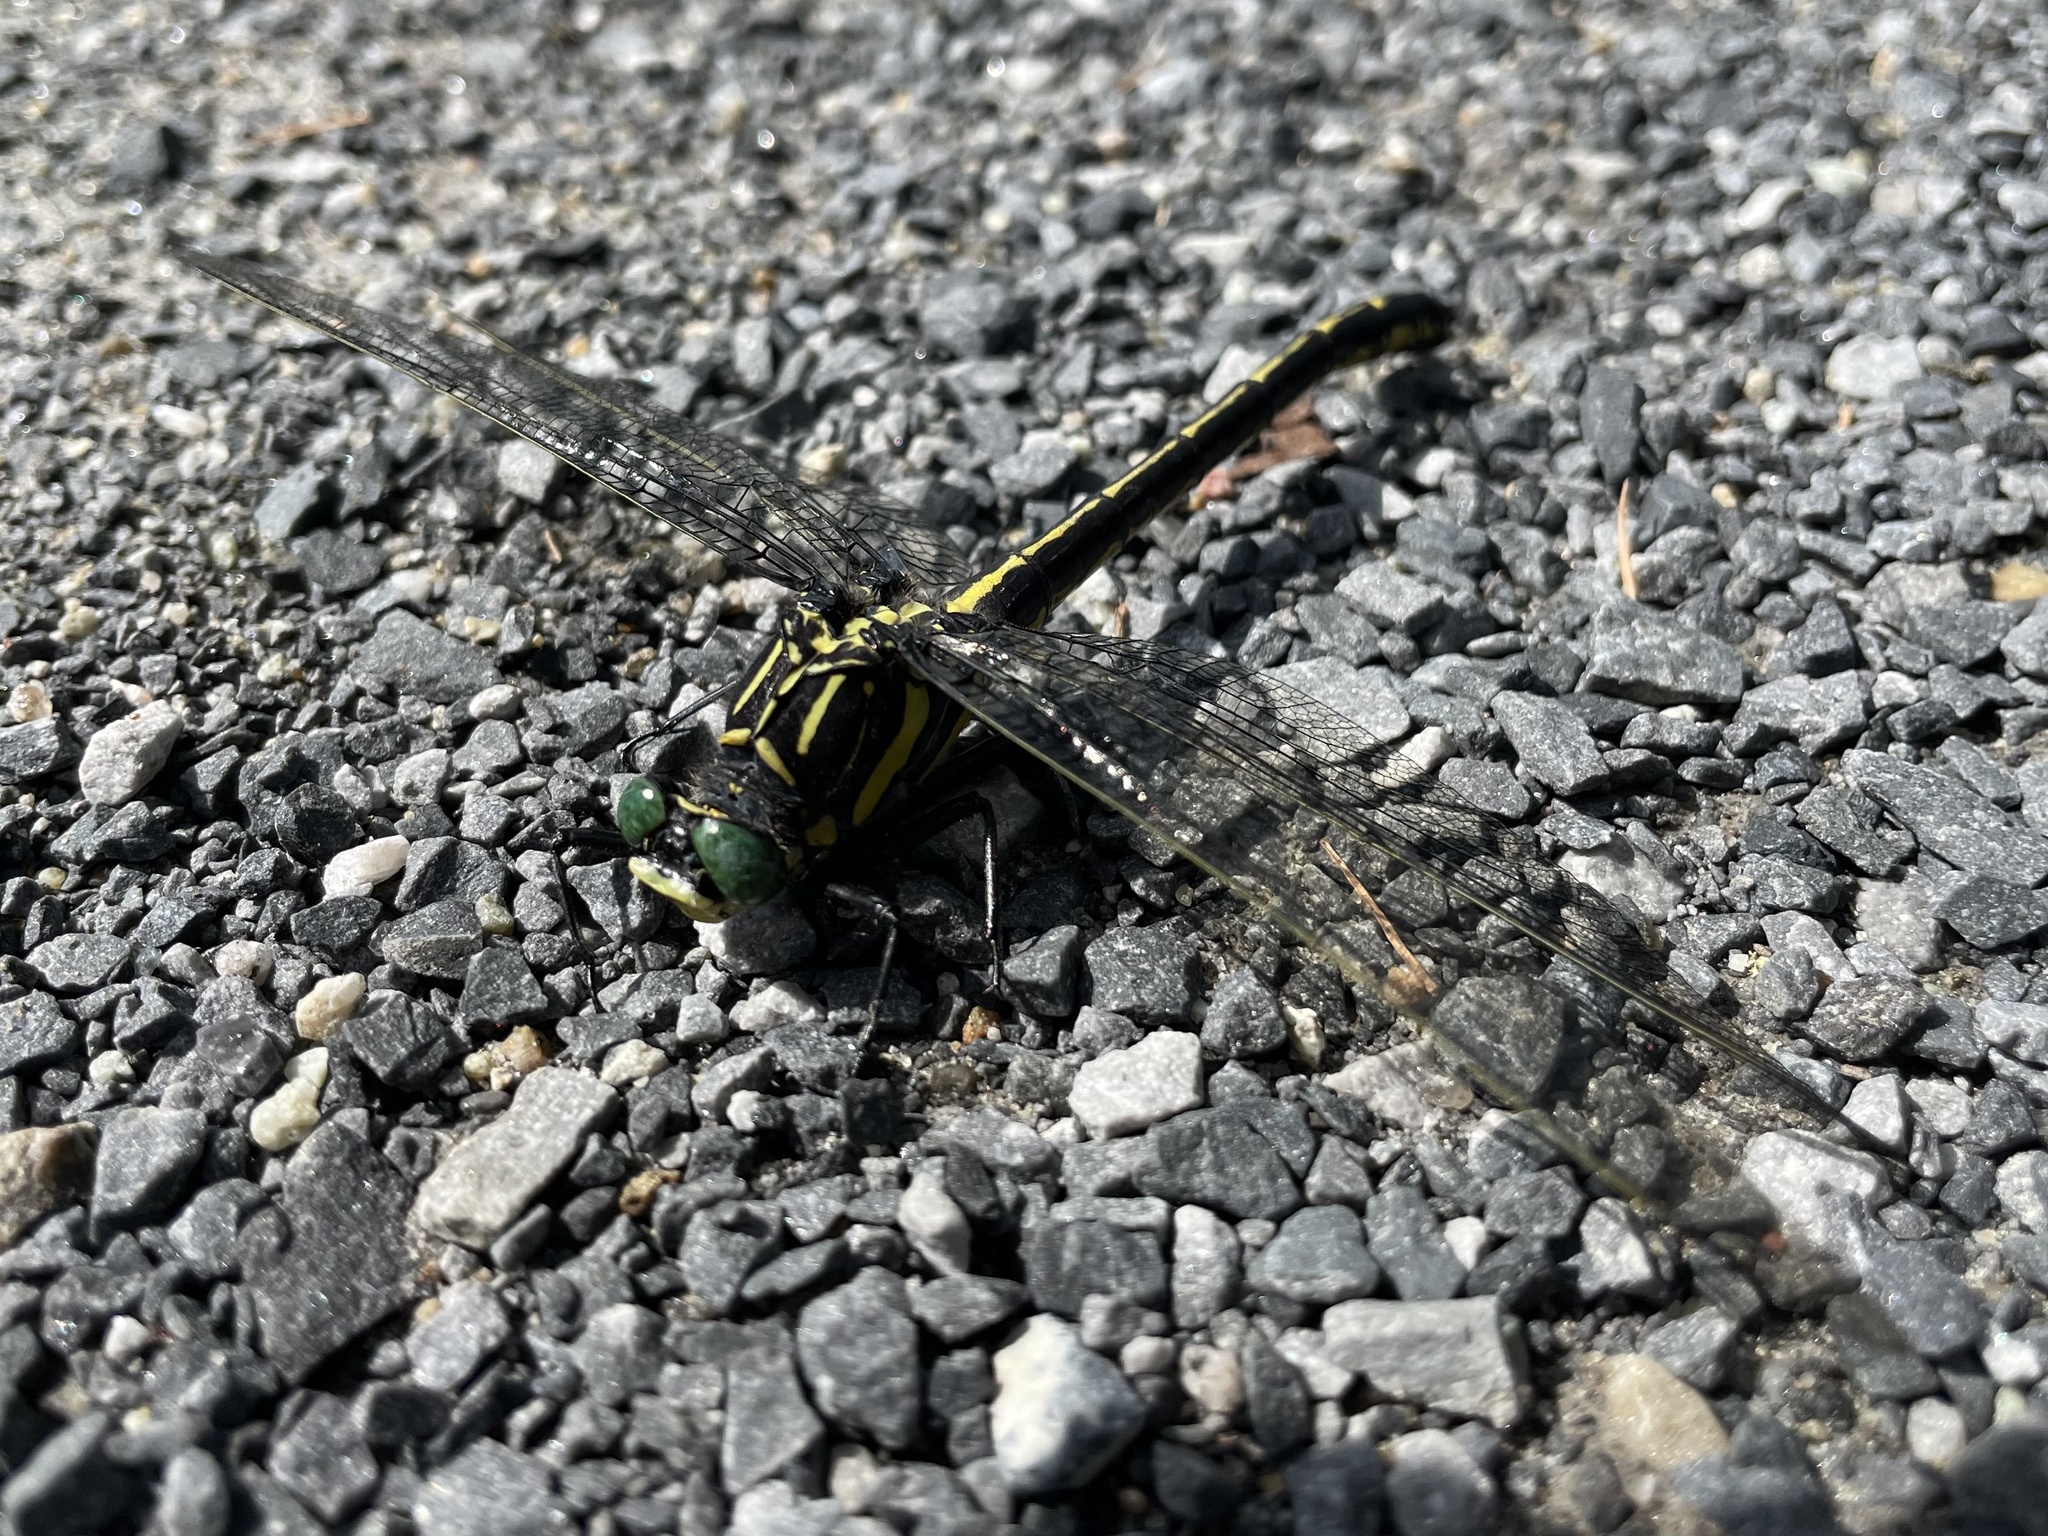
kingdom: Animalia
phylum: Arthropoda
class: Insecta
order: Odonata
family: Gomphidae
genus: Hagenius
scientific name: Hagenius brevistylus
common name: Dragonhunter
